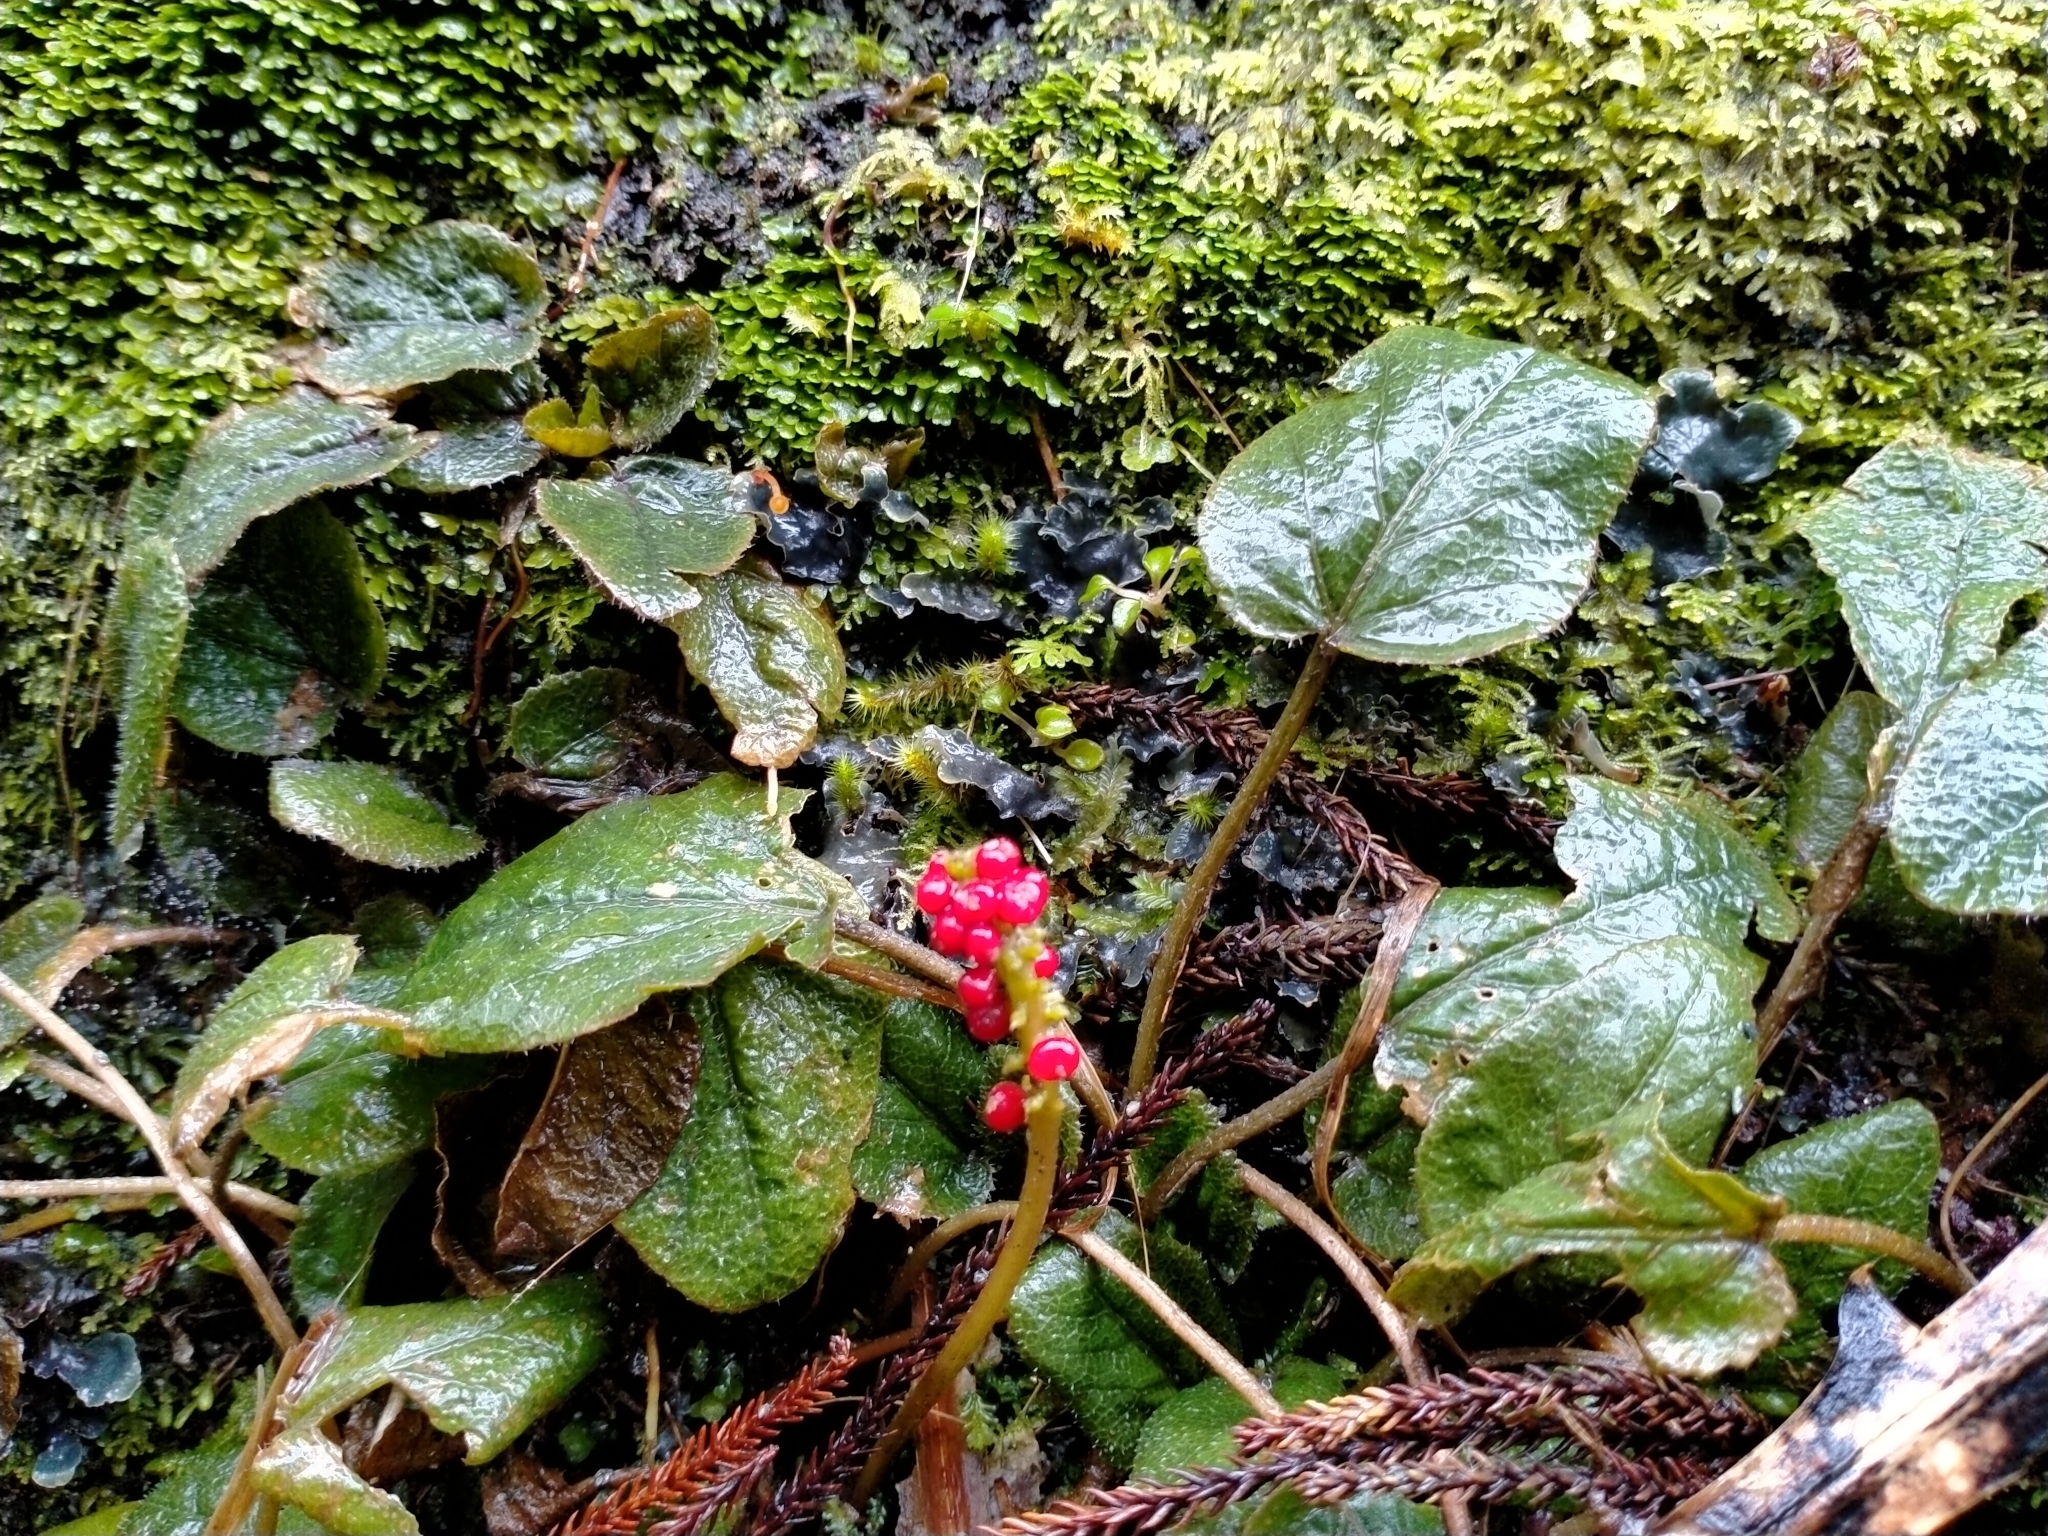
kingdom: Plantae
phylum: Tracheophyta
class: Magnoliopsida
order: Gunnerales
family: Gunneraceae
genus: Gunnera
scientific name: Gunnera prorepens
